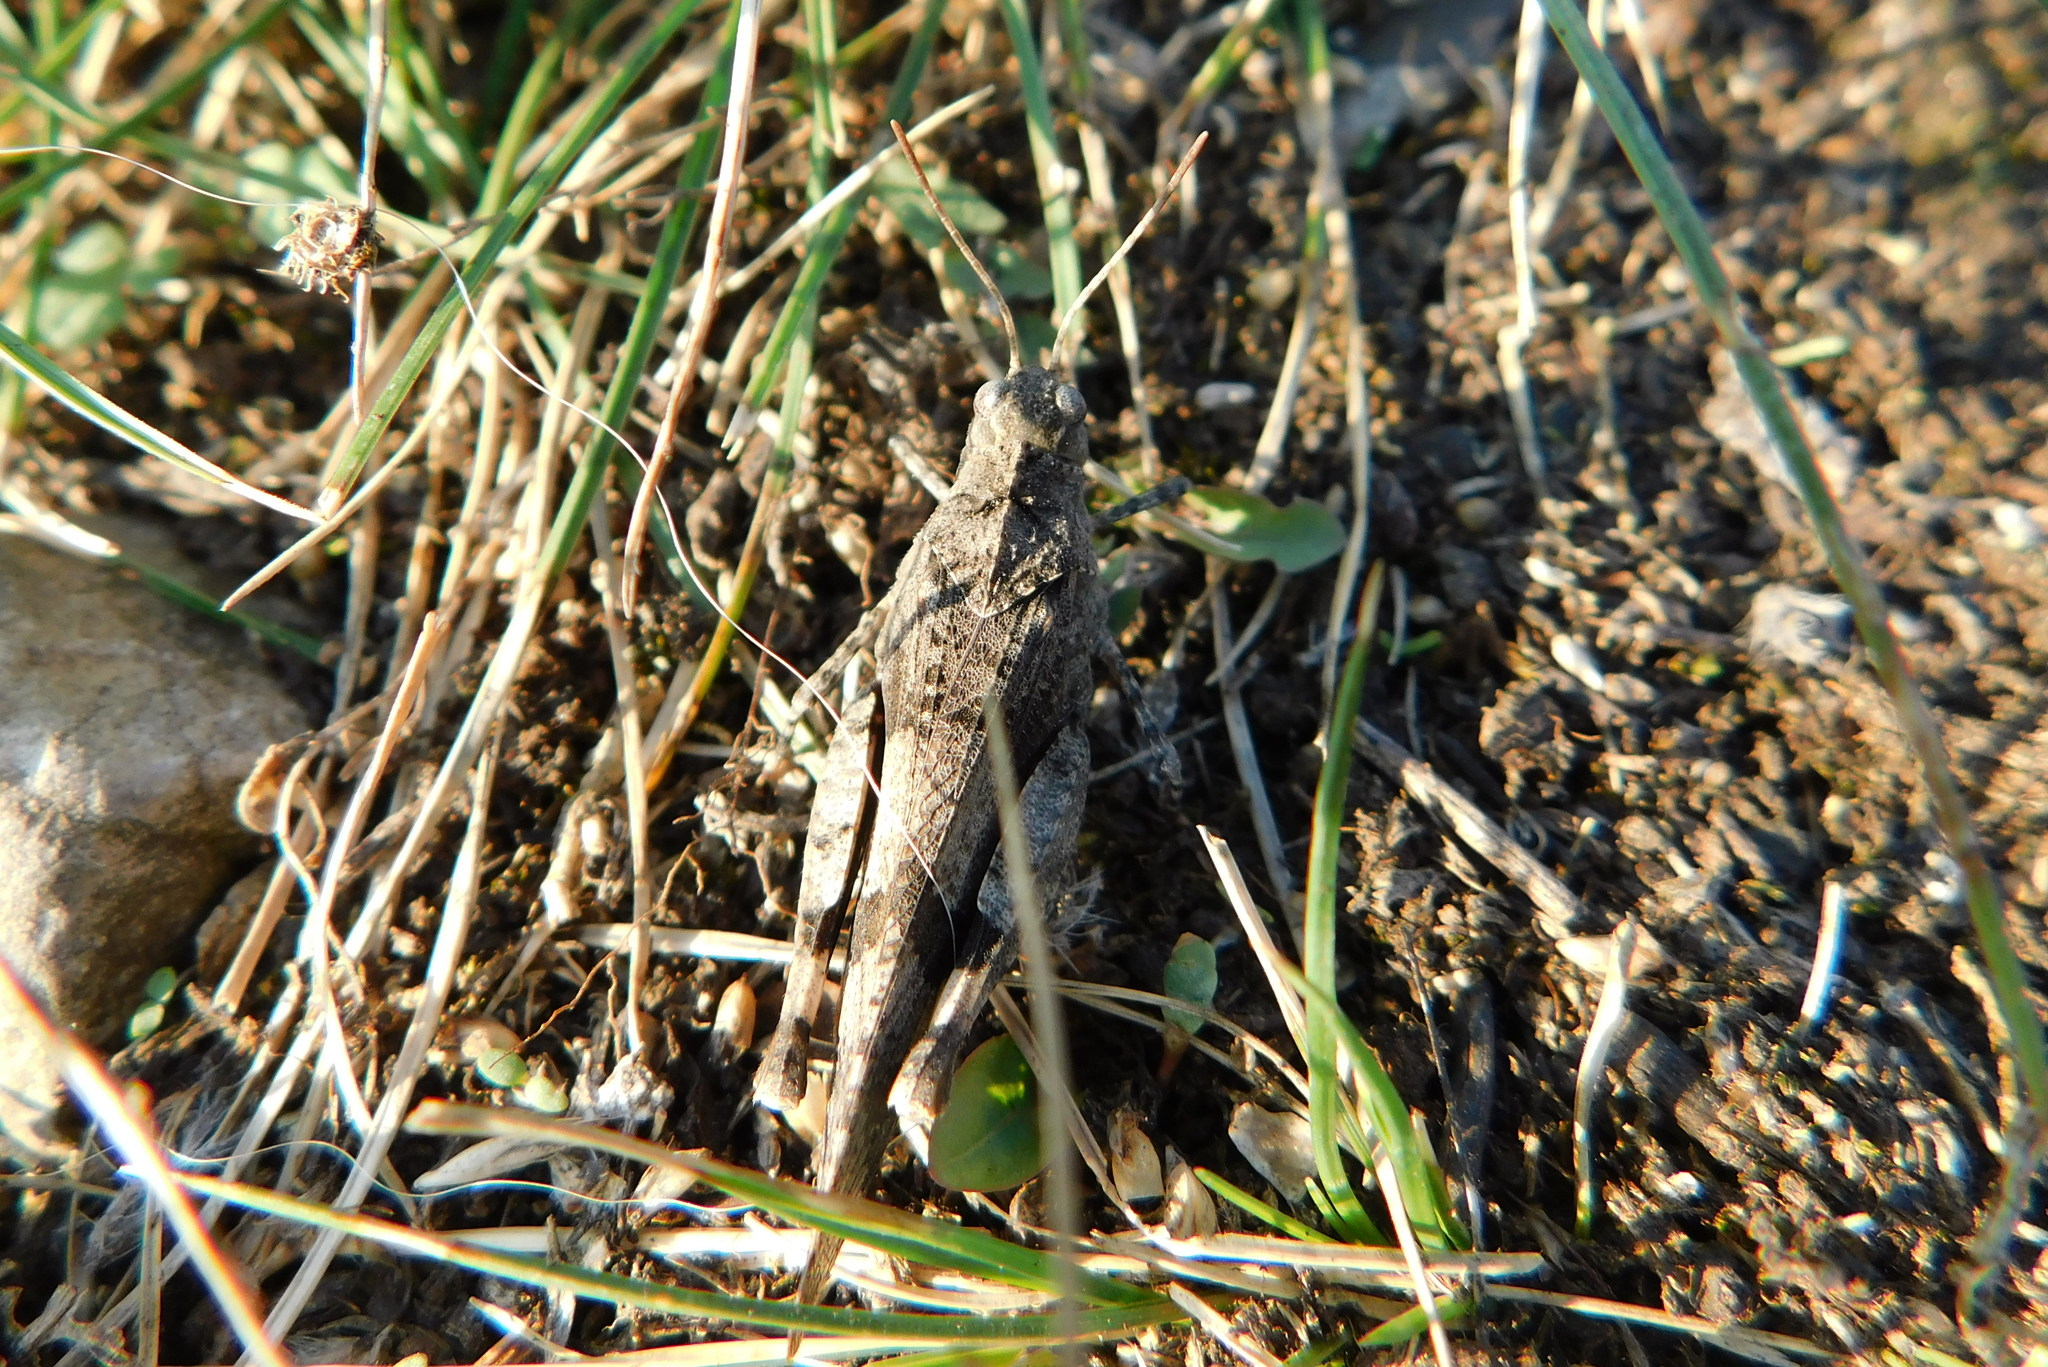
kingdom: Animalia
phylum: Arthropoda
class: Insecta
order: Orthoptera
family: Acrididae
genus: Oedipoda
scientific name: Oedipoda caerulescens
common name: Blue-winged grasshopper
